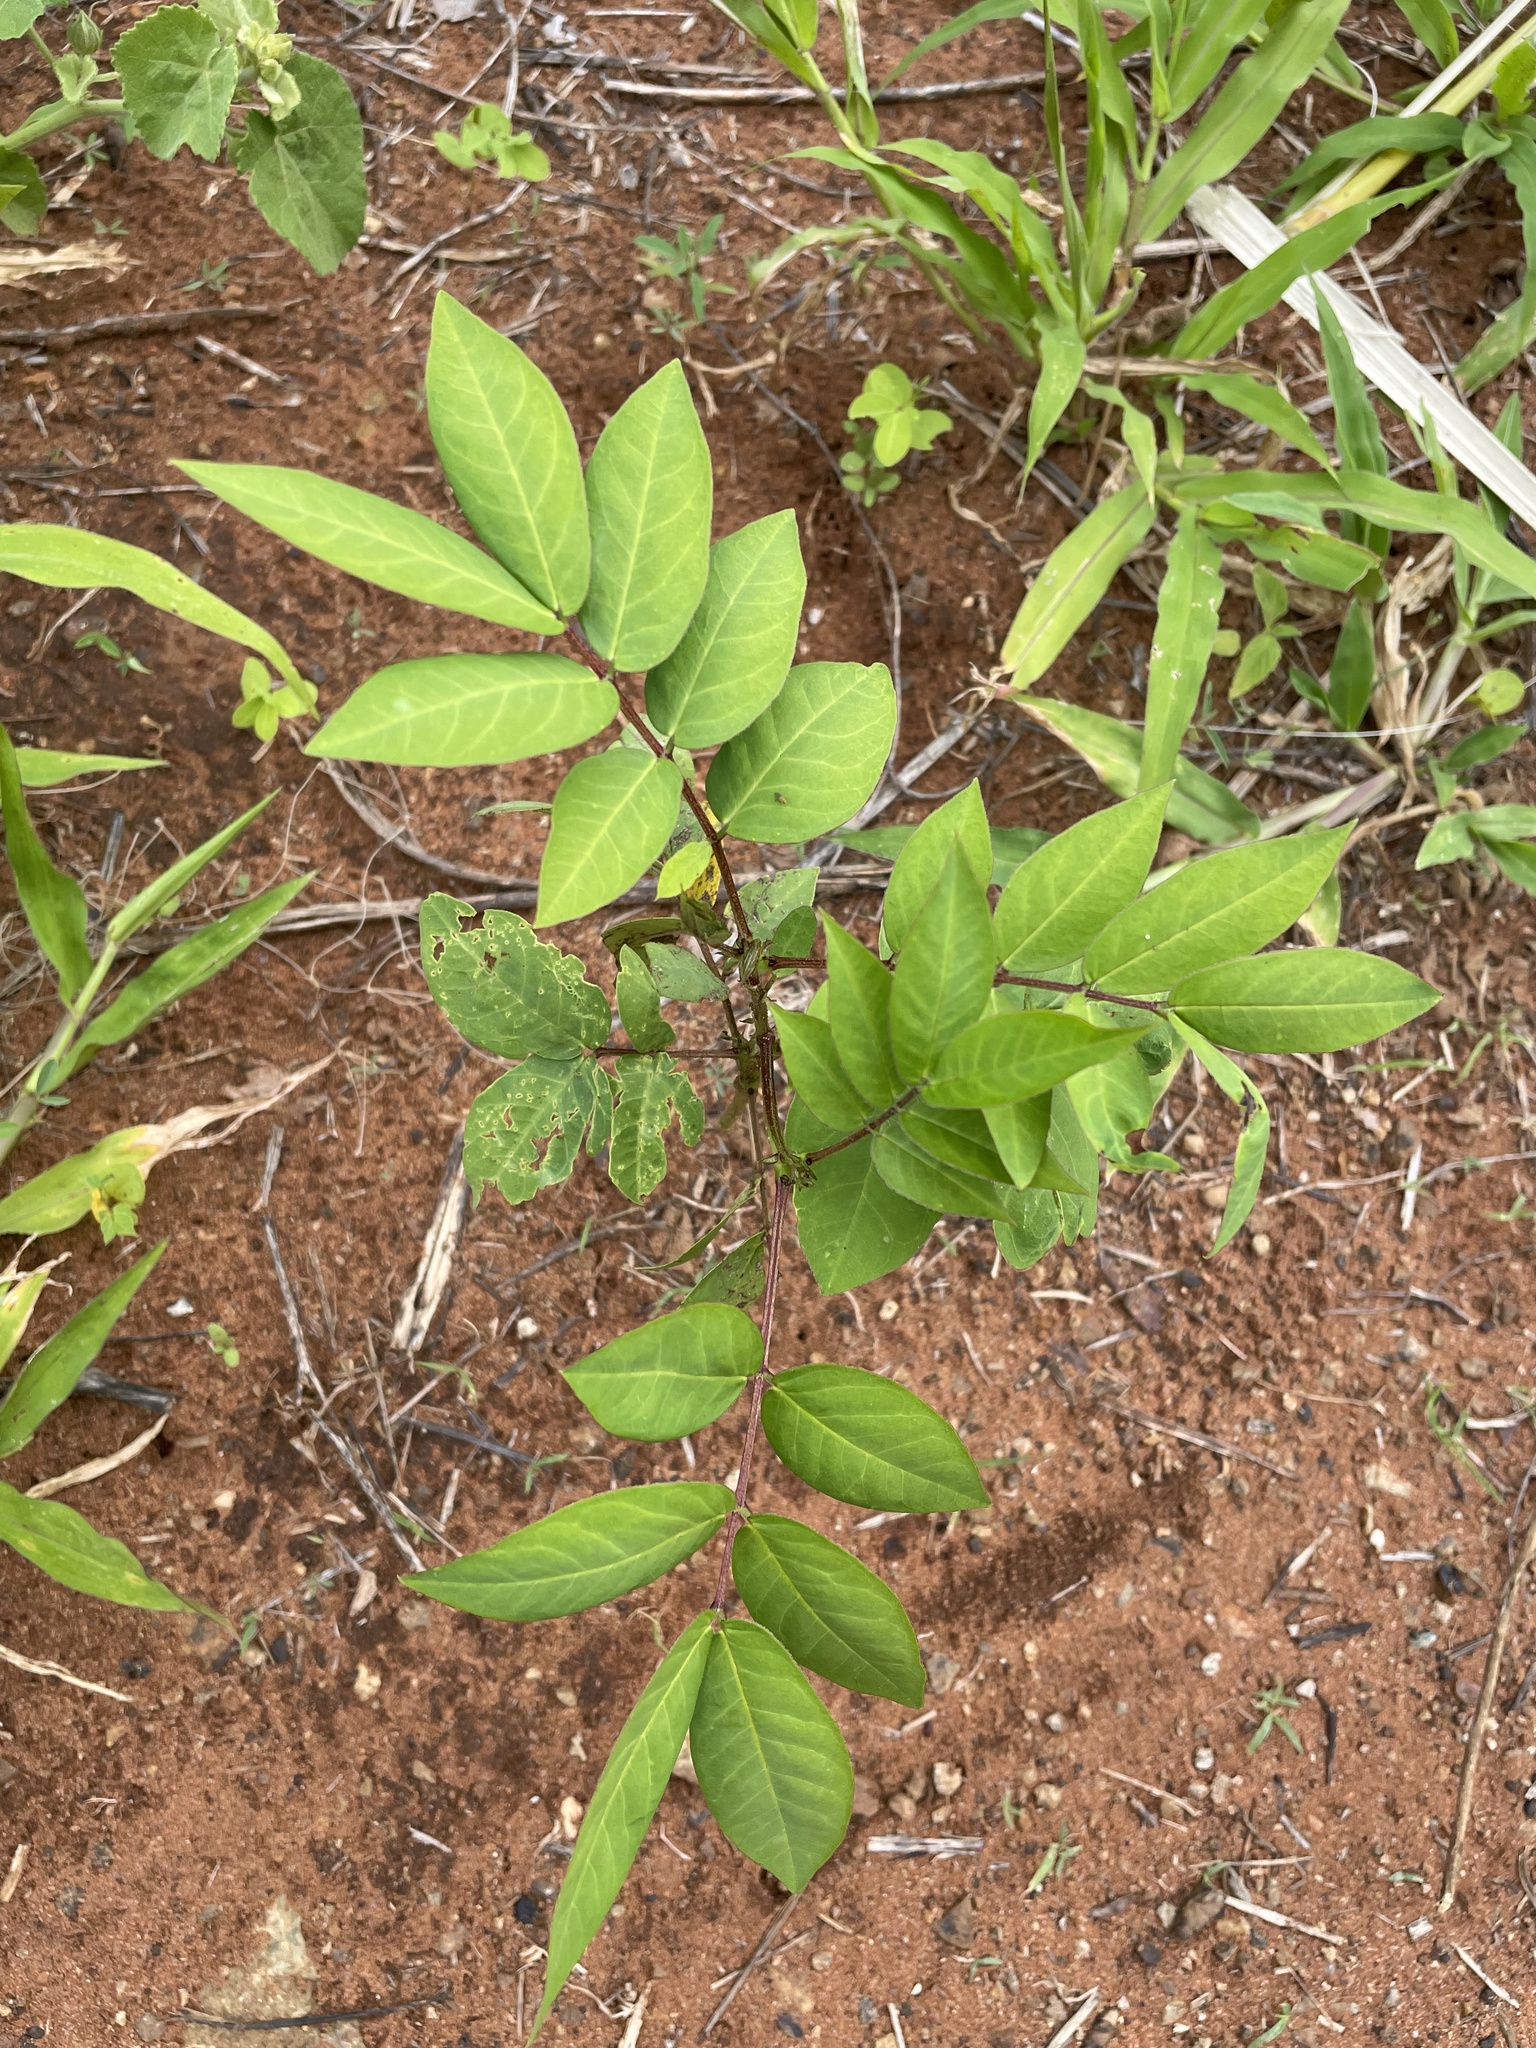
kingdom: Plantae
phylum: Tracheophyta
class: Magnoliopsida
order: Fabales
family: Fabaceae
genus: Senna
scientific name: Senna occidentalis
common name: Septicweed
